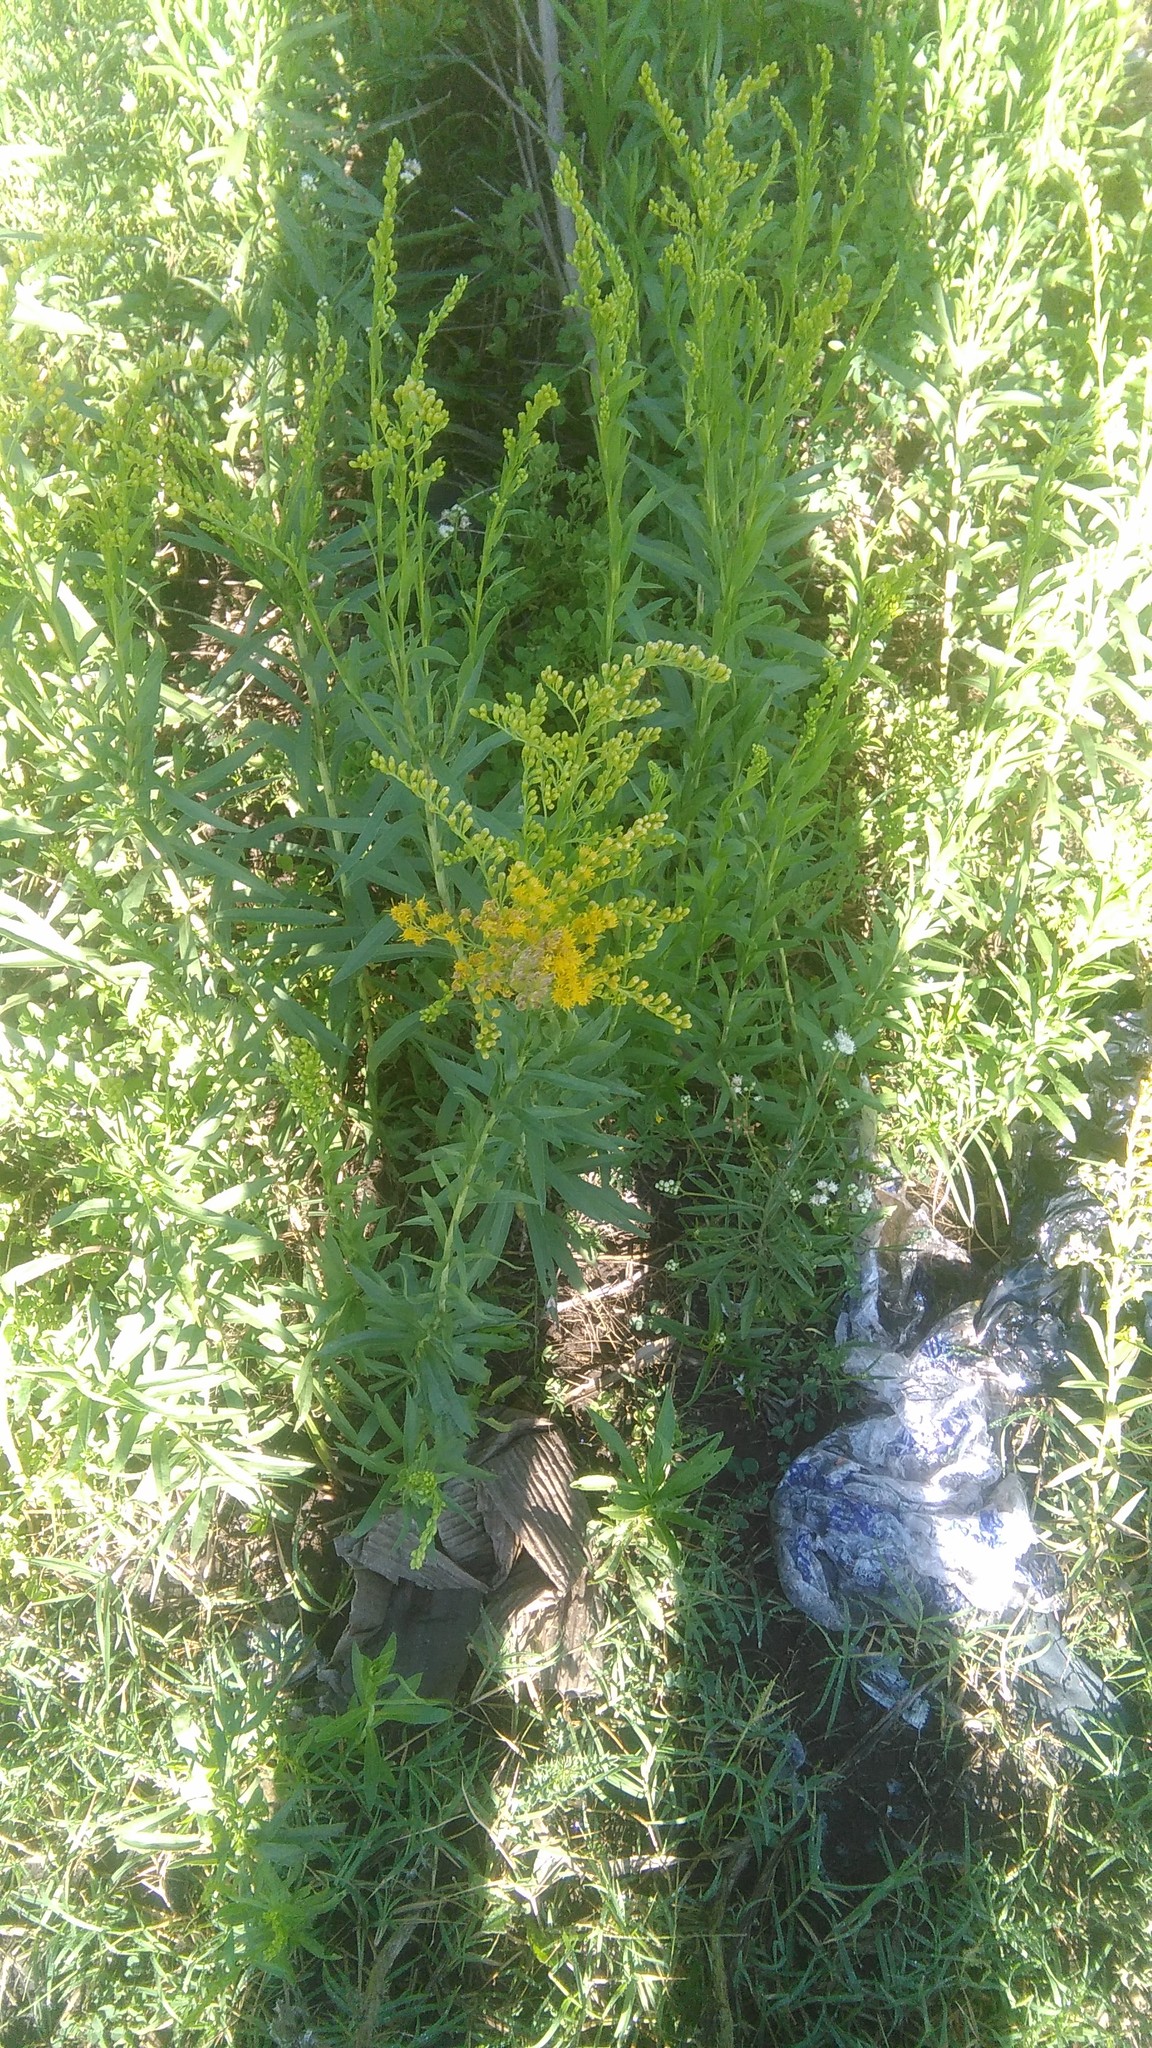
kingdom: Plantae
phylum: Tracheophyta
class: Magnoliopsida
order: Asterales
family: Asteraceae
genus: Solidago
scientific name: Solidago chilensis
